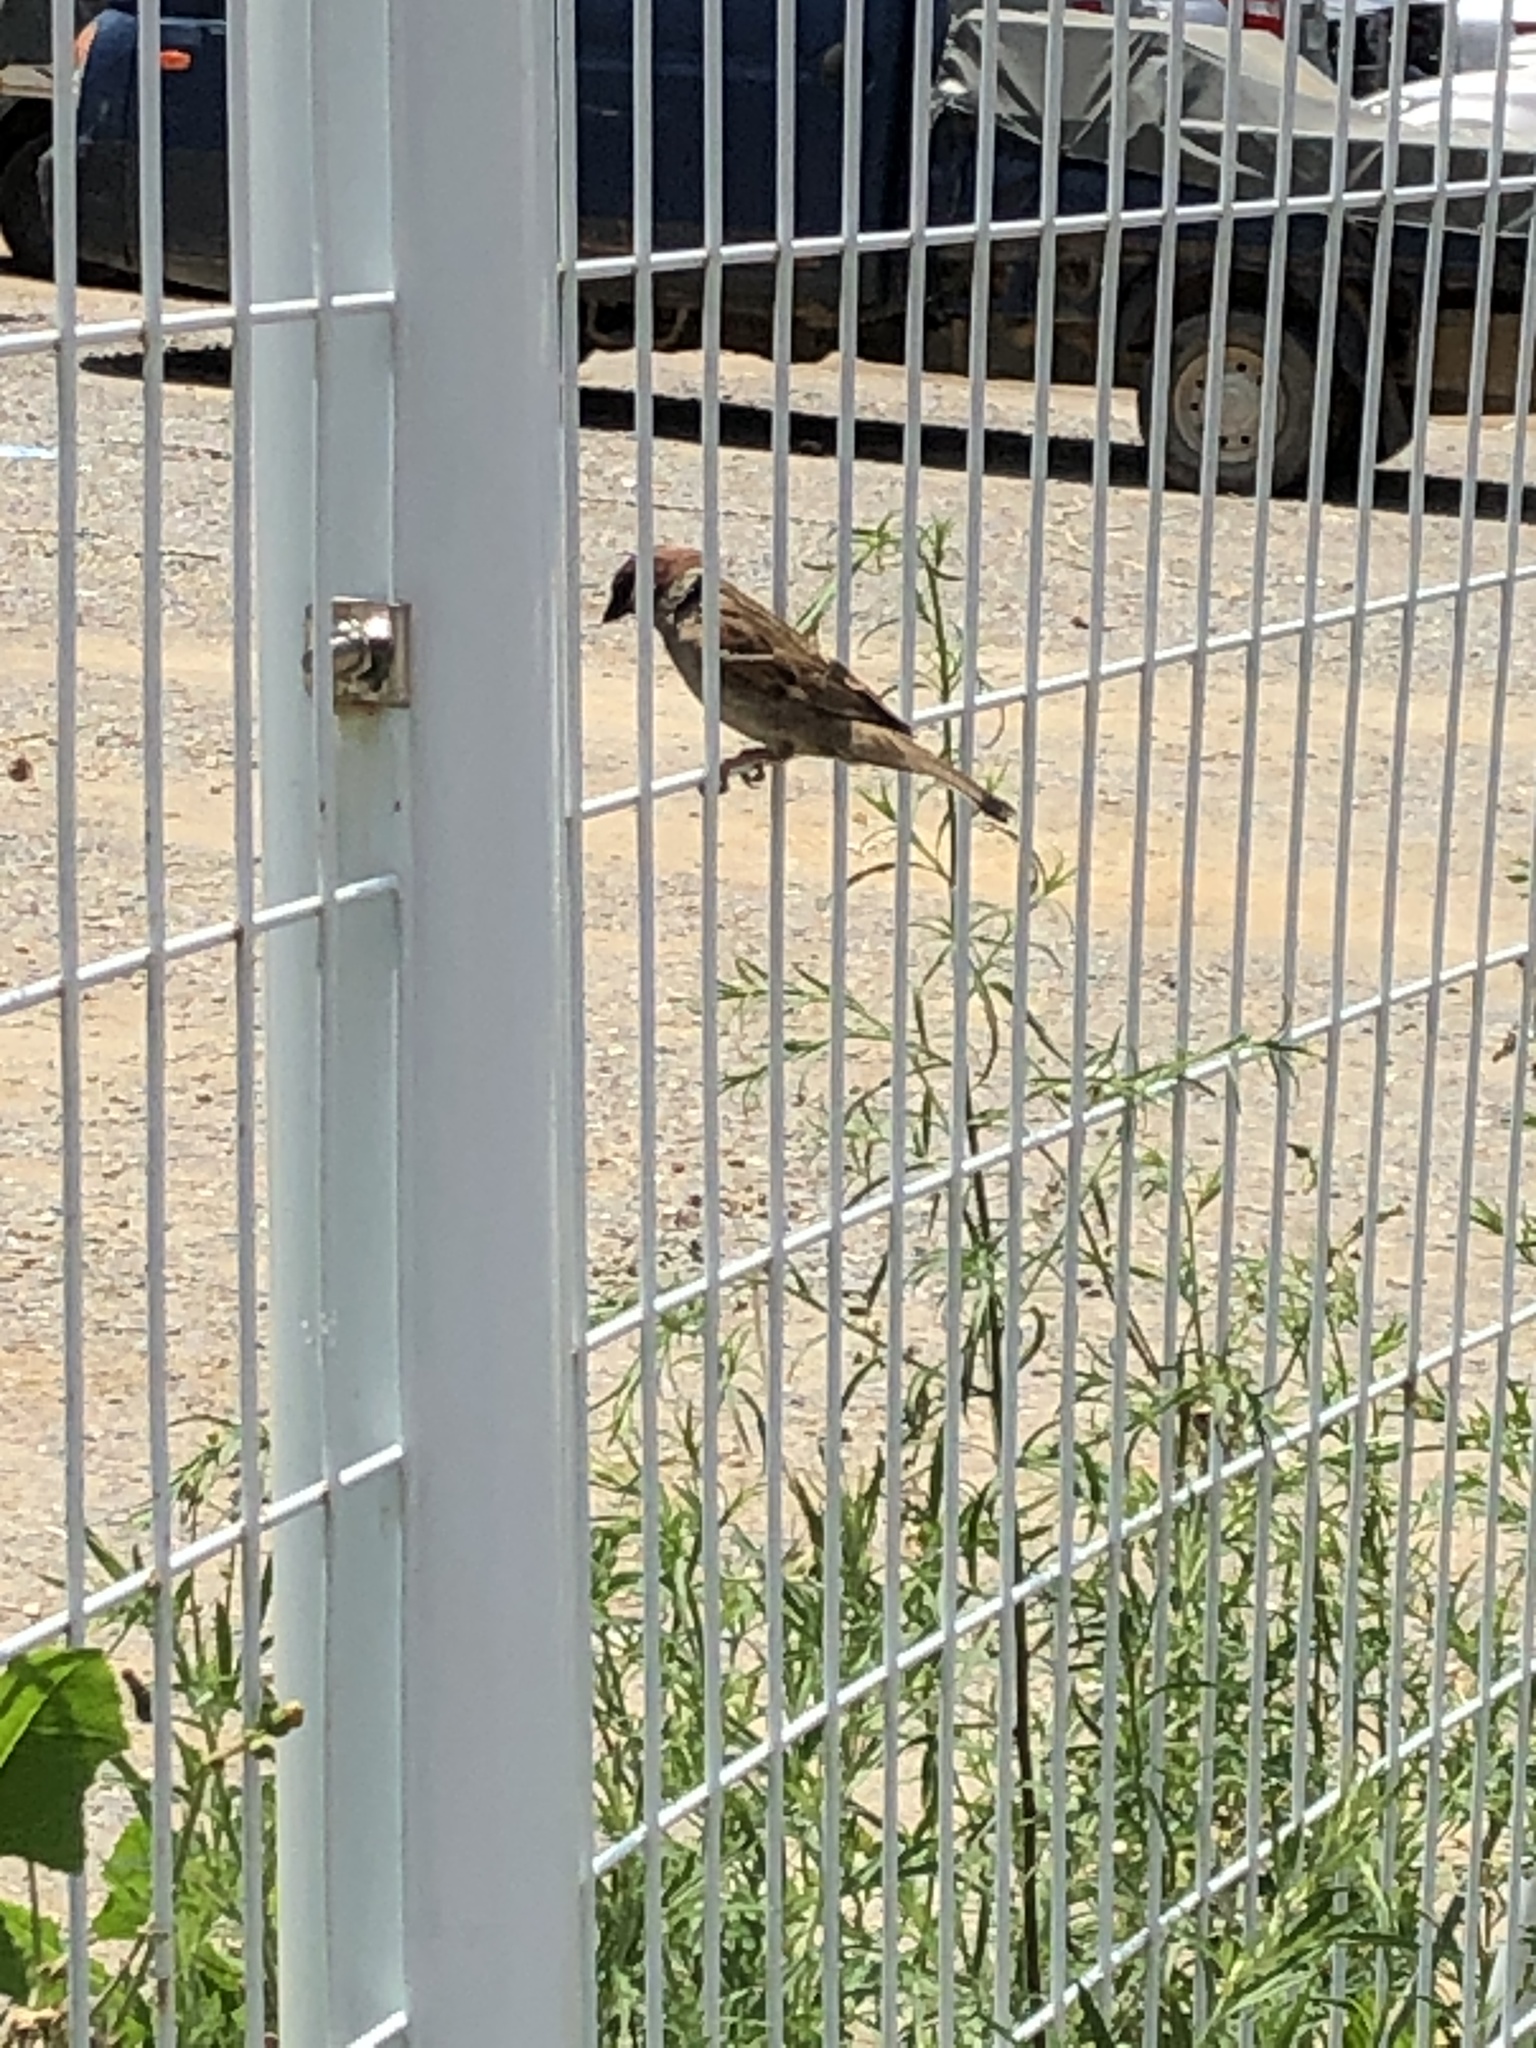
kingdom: Animalia
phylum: Chordata
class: Aves
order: Passeriformes
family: Passeridae
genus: Passer
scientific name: Passer montanus
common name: Eurasian tree sparrow
